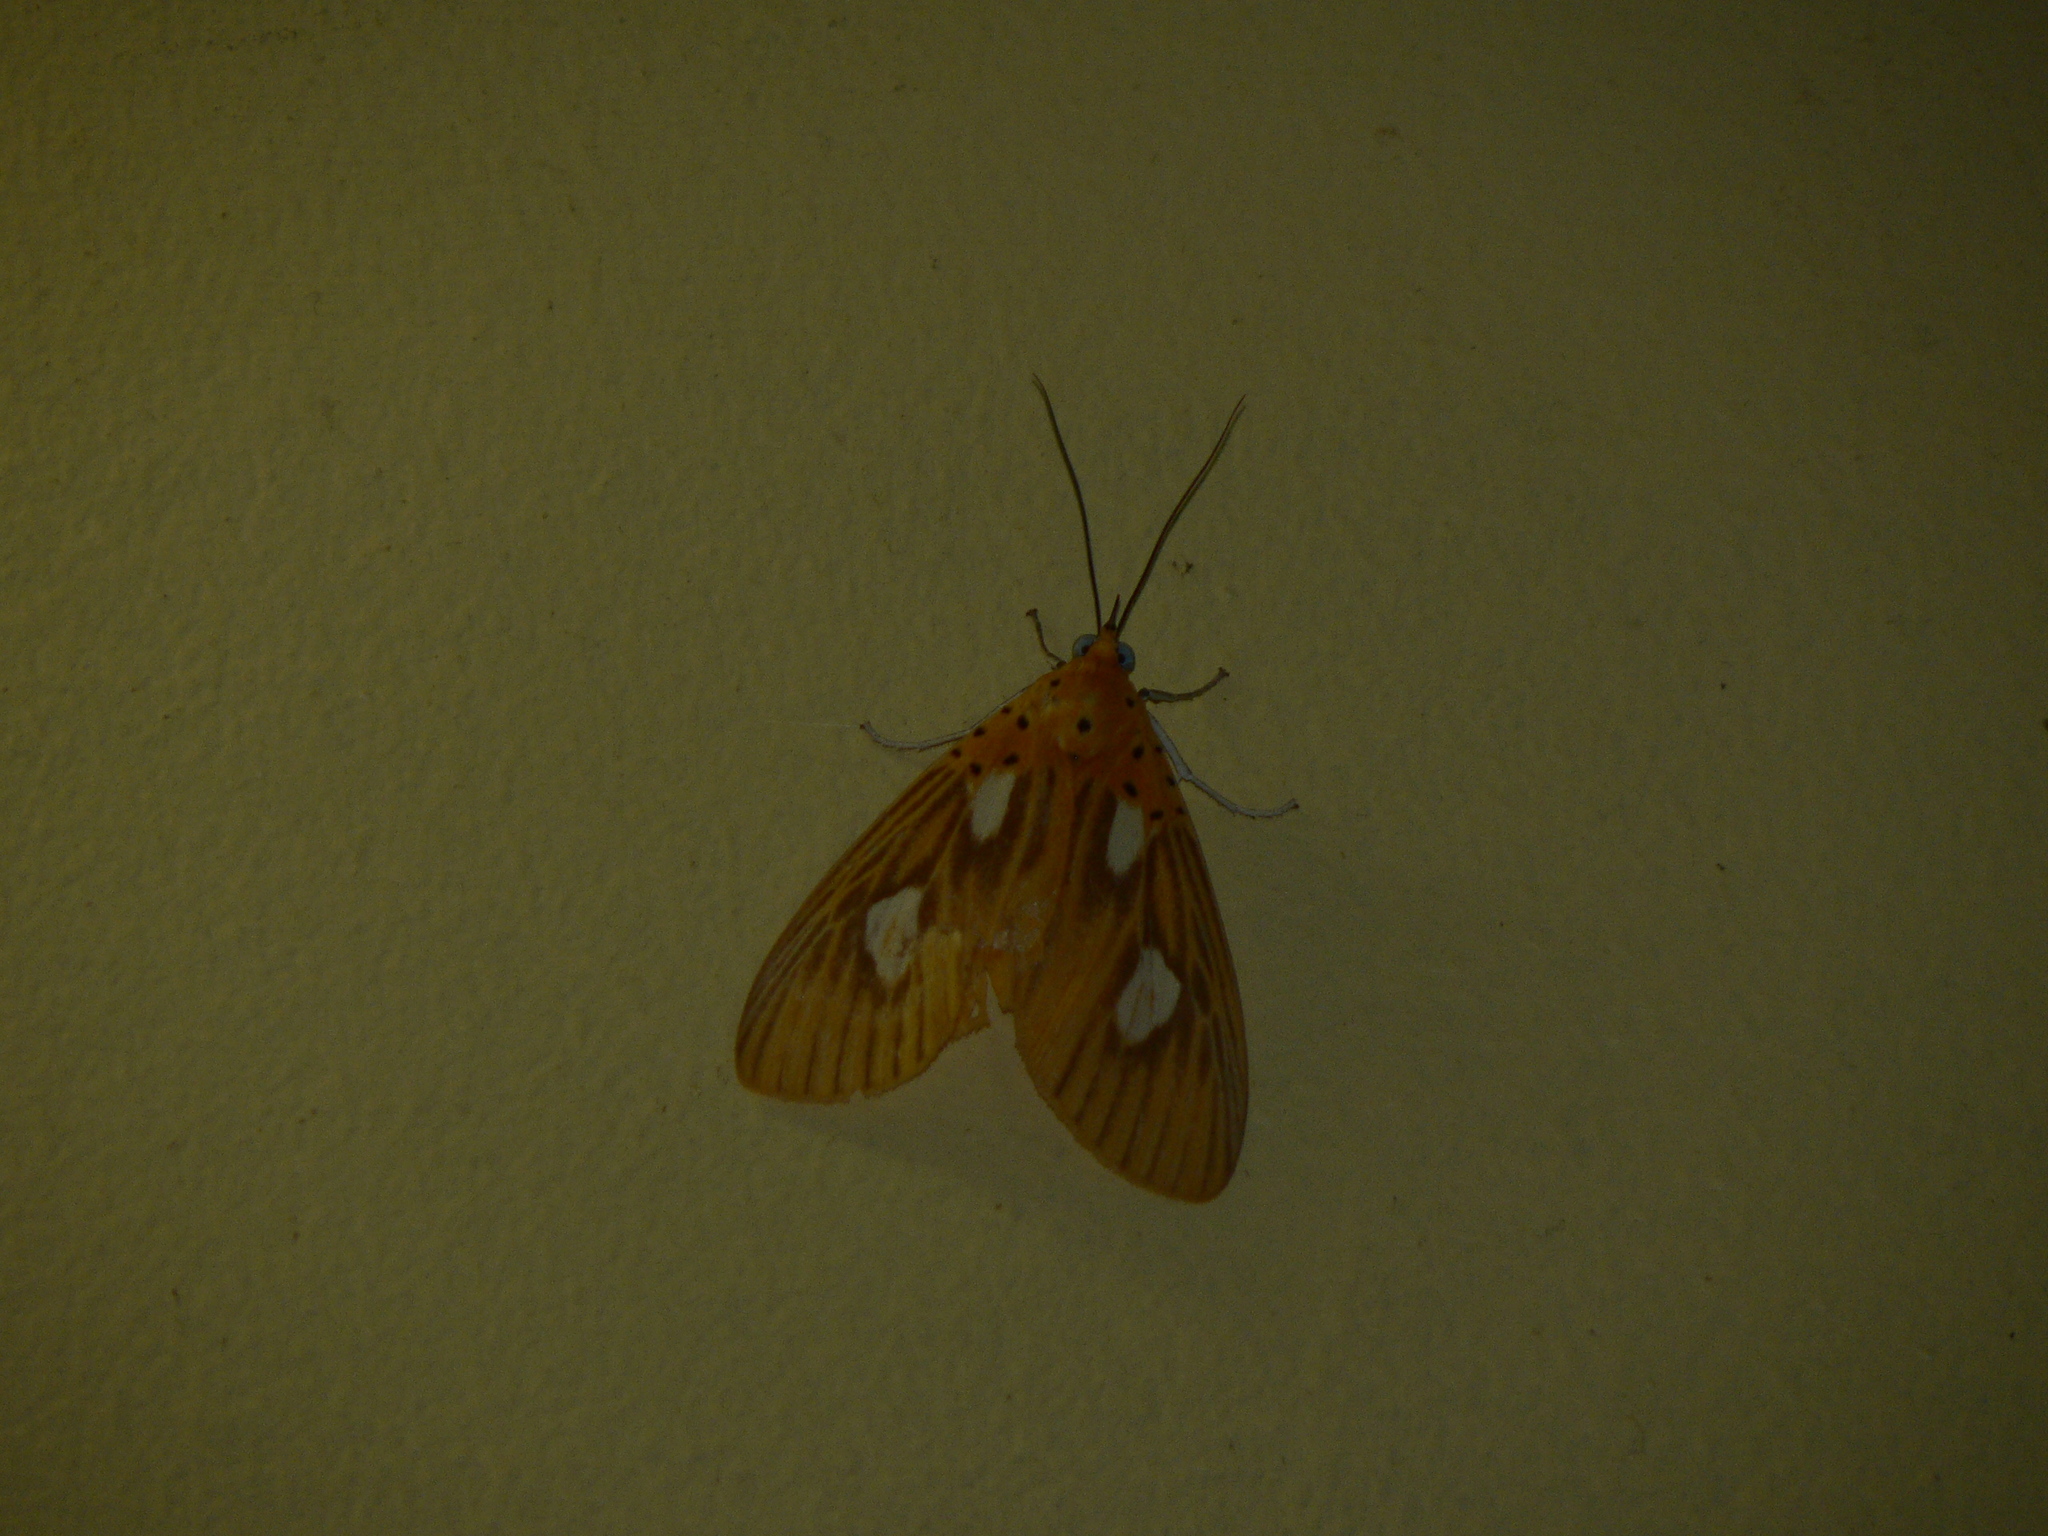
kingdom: Animalia
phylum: Arthropoda
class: Insecta
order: Lepidoptera
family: Erebidae
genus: Asota
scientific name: Asota orbona
